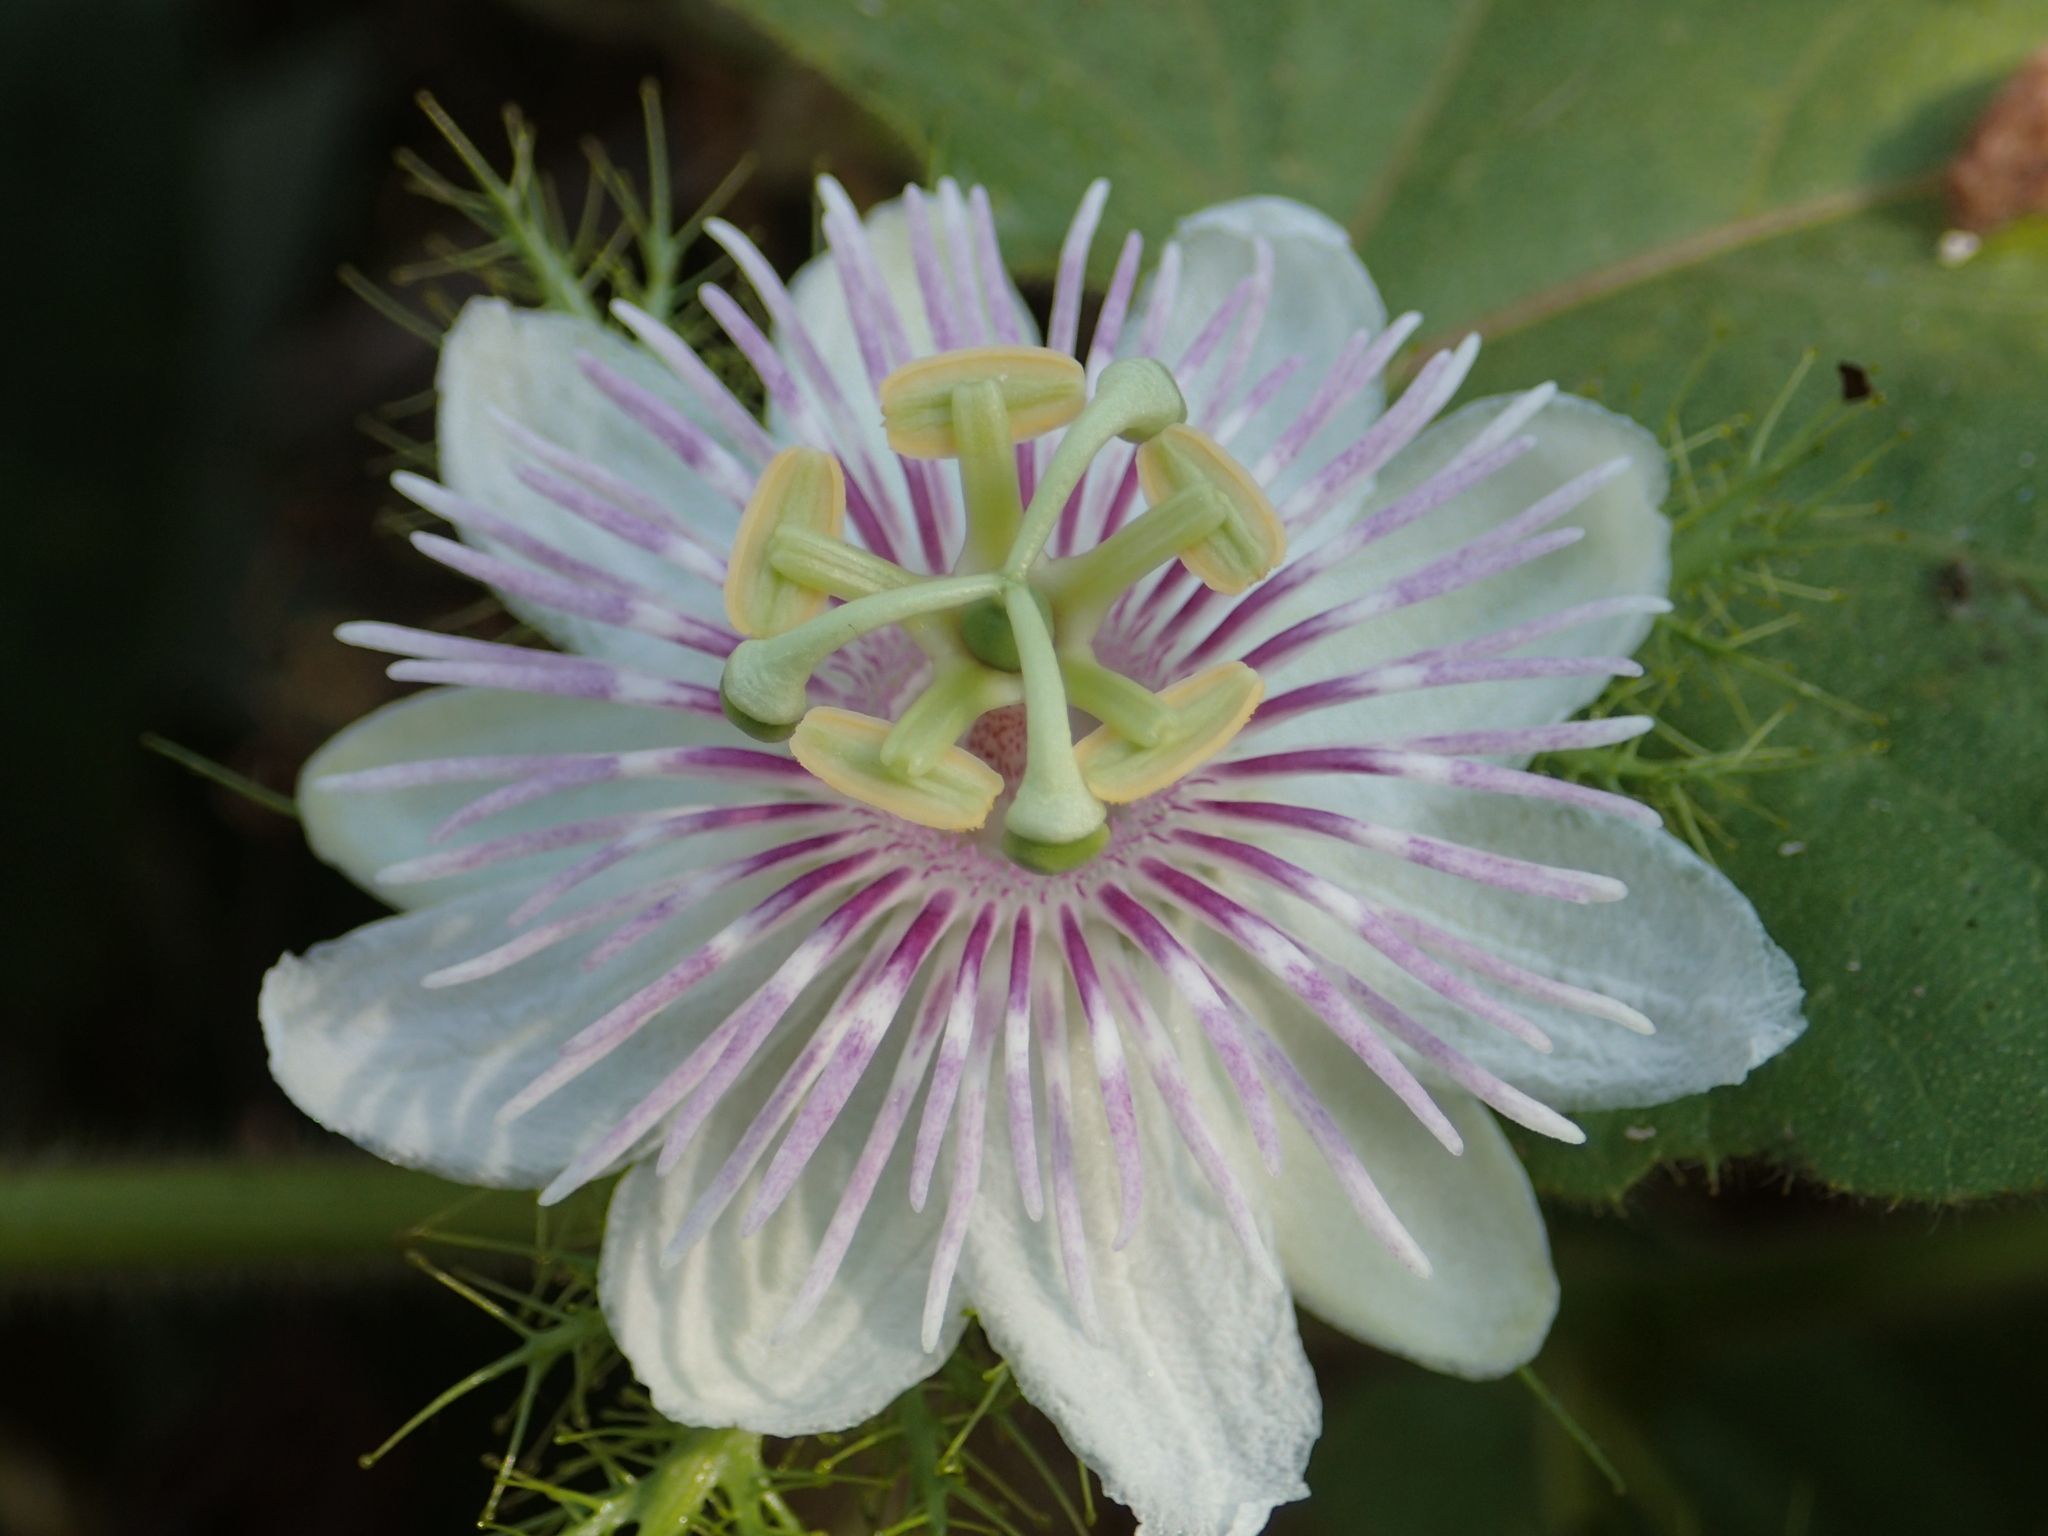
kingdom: Plantae
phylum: Tracheophyta
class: Magnoliopsida
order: Malpighiales
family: Passifloraceae
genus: Passiflora
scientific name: Passiflora vesicaria
